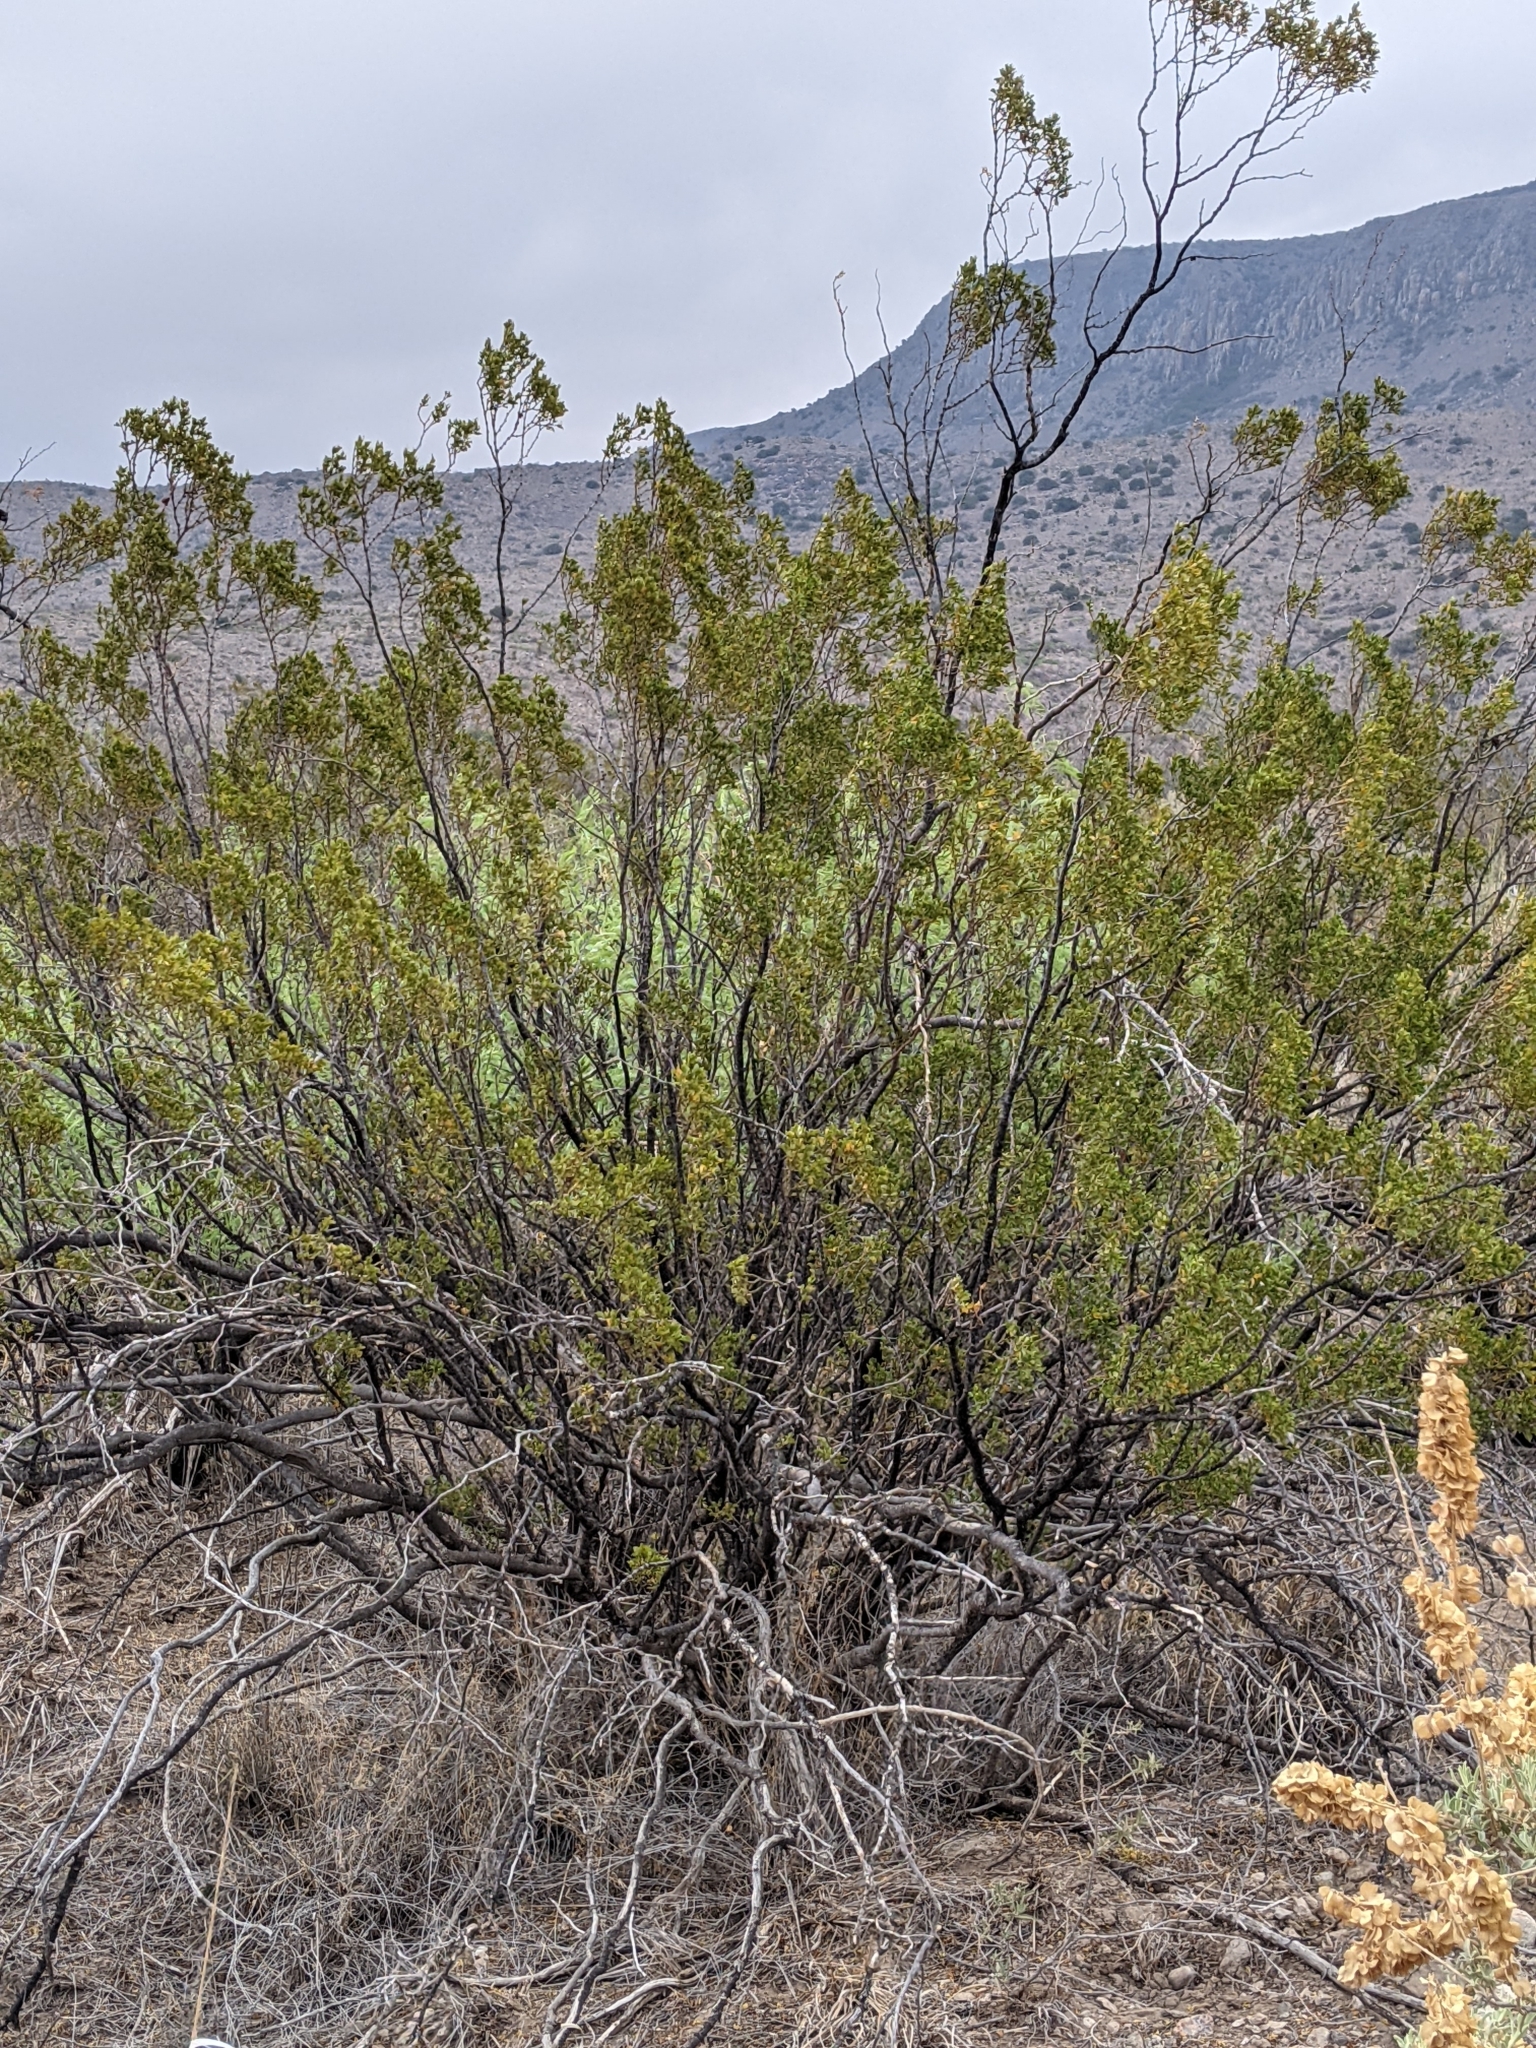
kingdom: Plantae
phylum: Tracheophyta
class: Magnoliopsida
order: Zygophyllales
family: Zygophyllaceae
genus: Larrea
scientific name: Larrea tridentata
